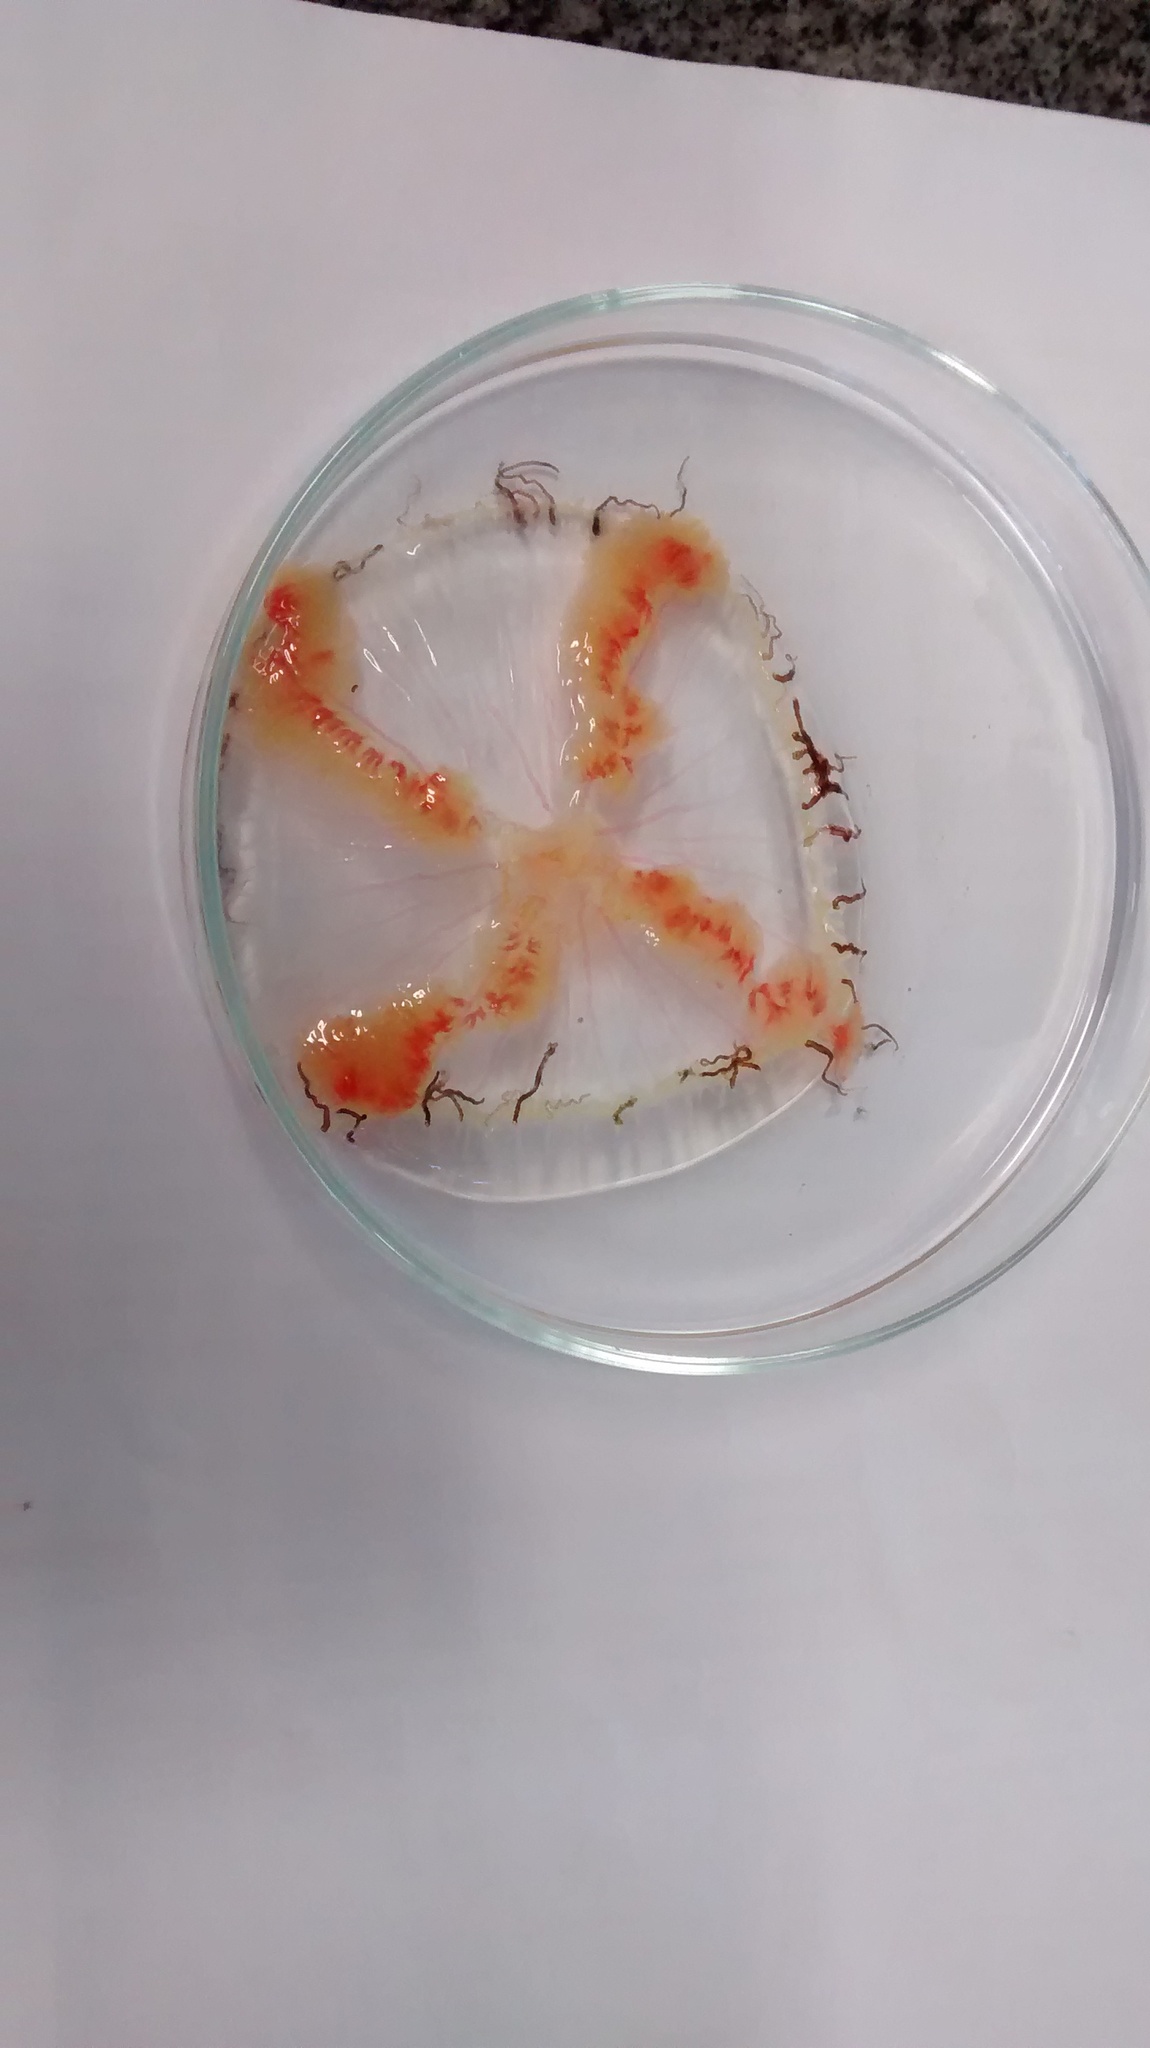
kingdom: Animalia
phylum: Cnidaria
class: Hydrozoa
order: Limnomedusae
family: Olindiidae
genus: Olindias
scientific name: Olindias sambaquiensis
